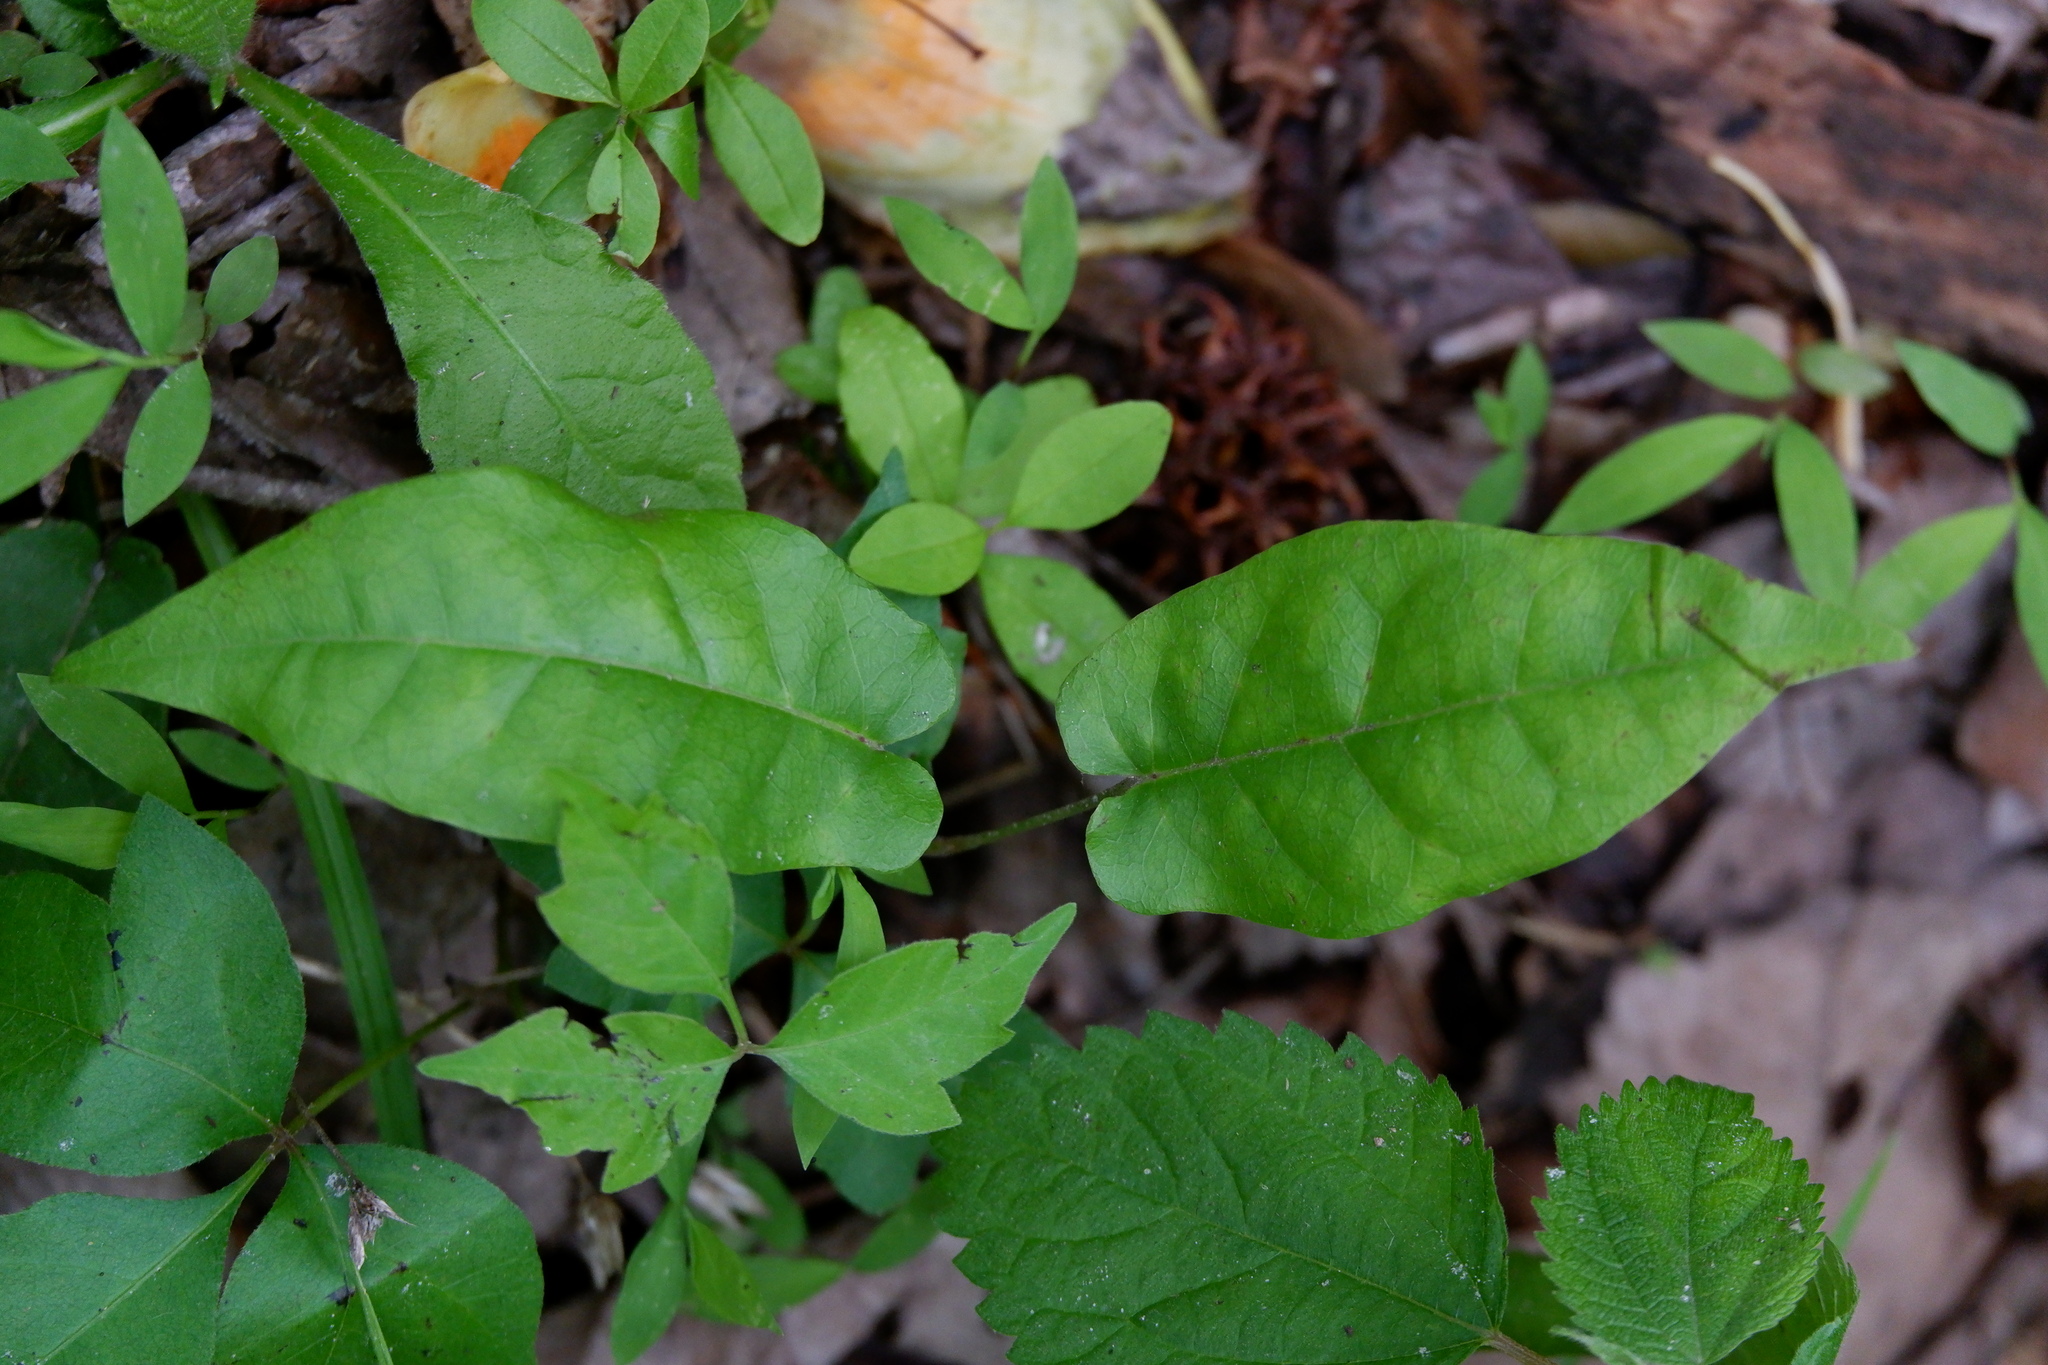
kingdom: Plantae
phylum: Tracheophyta
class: Magnoliopsida
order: Lamiales
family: Bignoniaceae
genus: Bignonia
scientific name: Bignonia capreolata
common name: Crossvine
